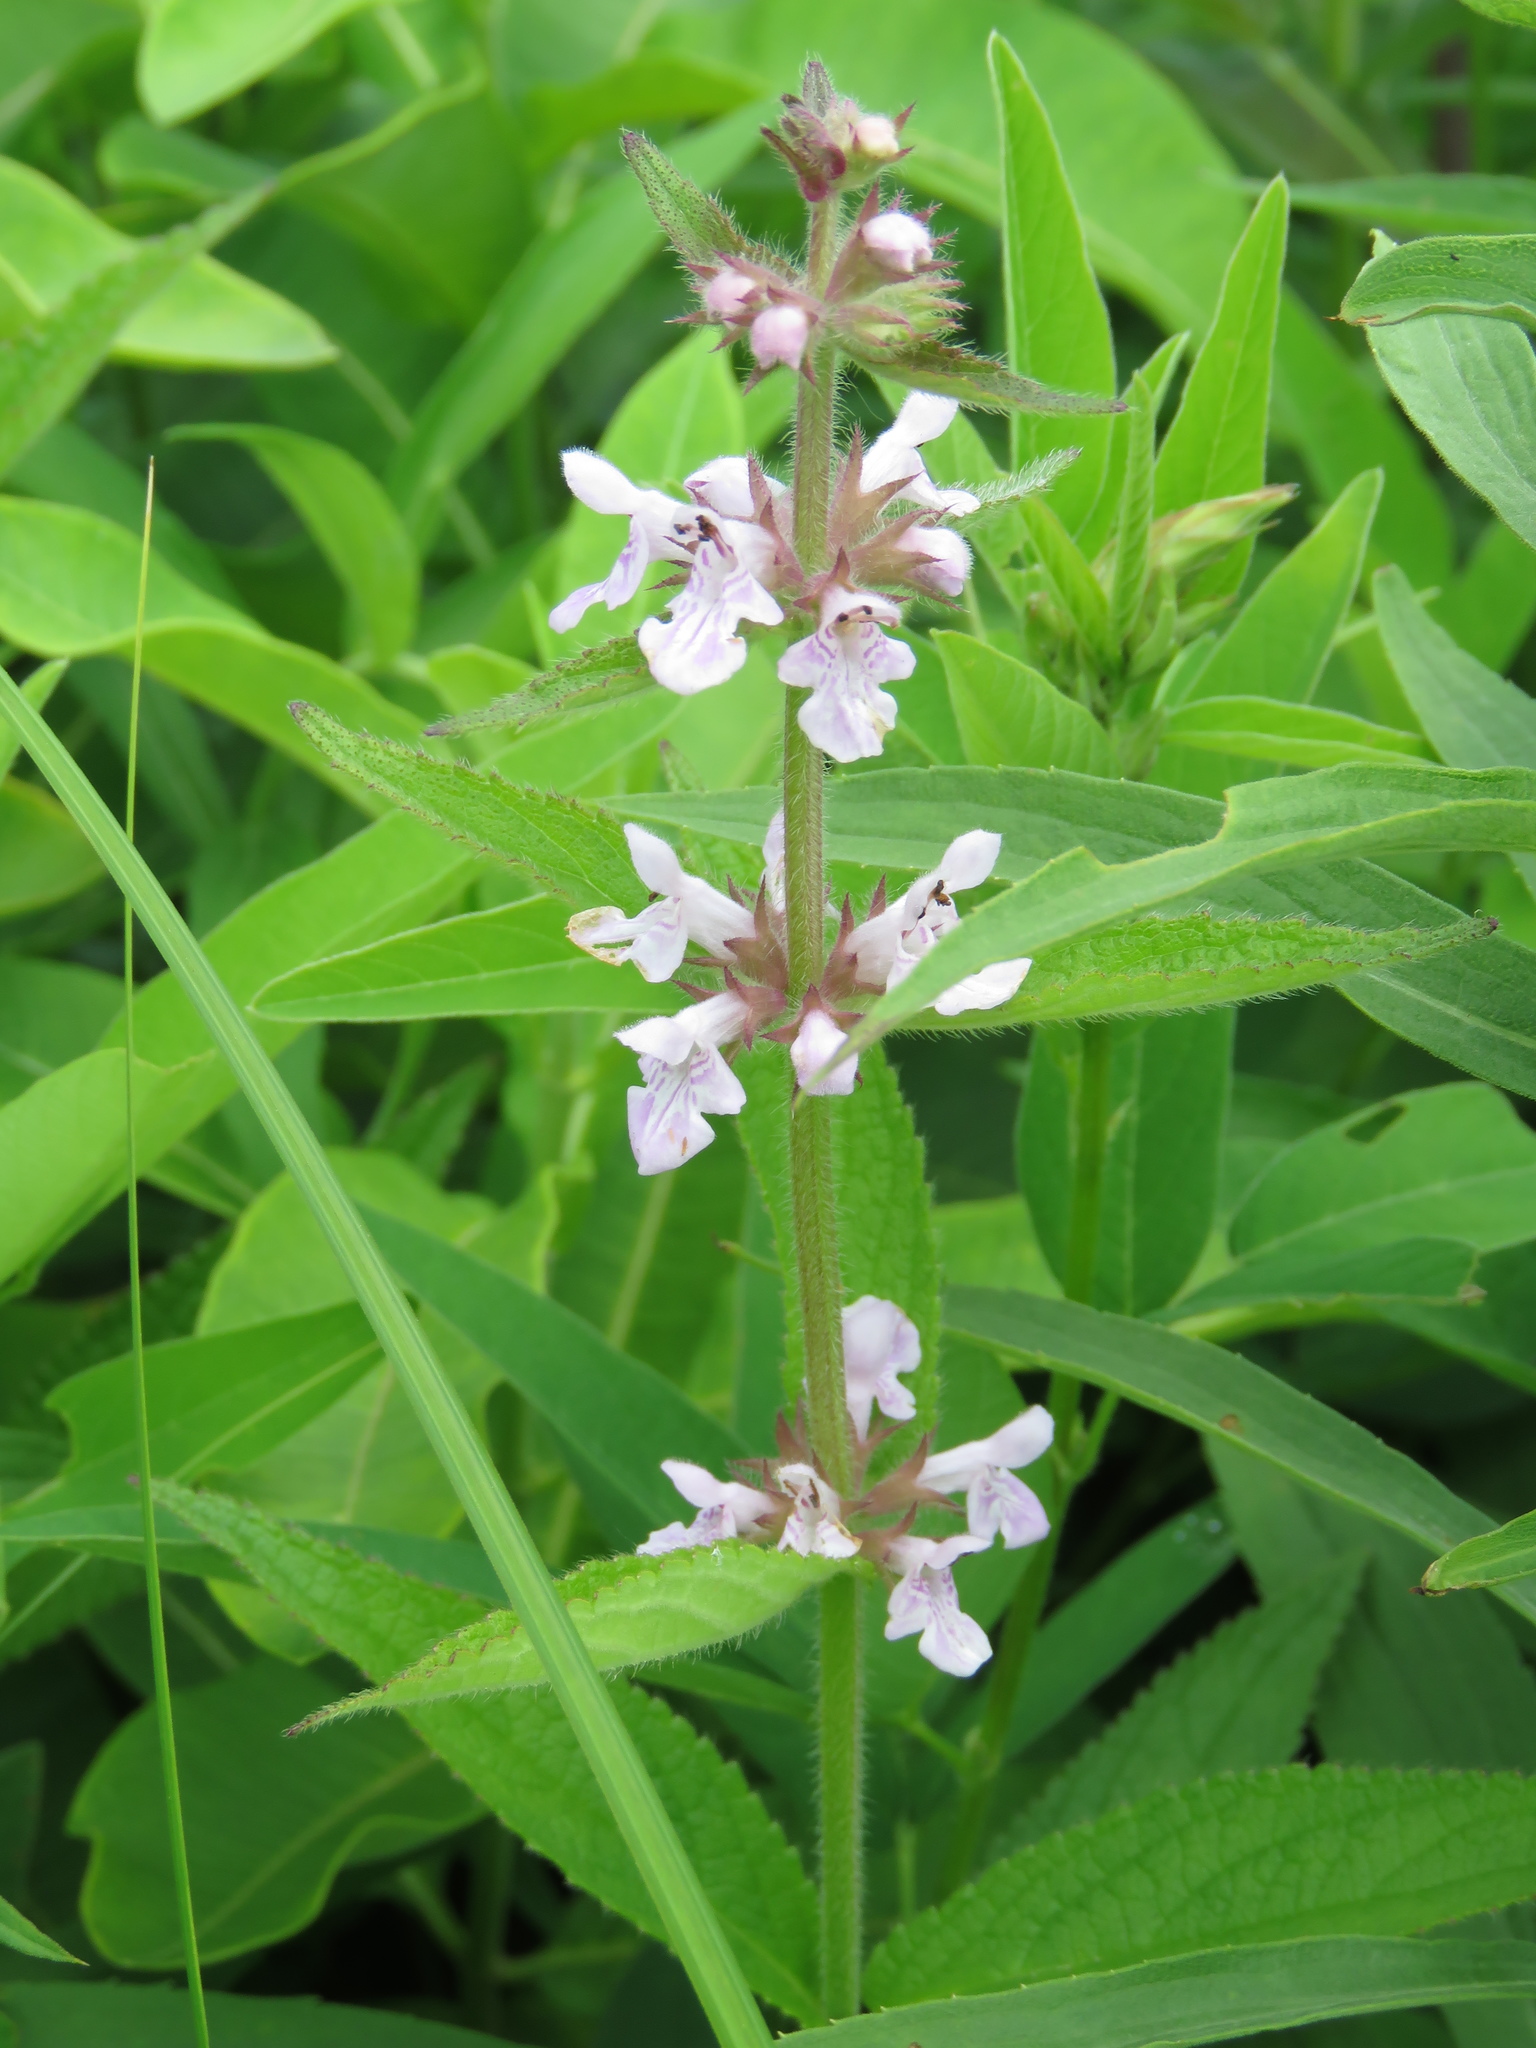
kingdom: Plantae
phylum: Tracheophyta
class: Magnoliopsida
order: Lamiales
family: Lamiaceae
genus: Stachys
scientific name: Stachys pilosa
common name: Hairy hedge-nettle
